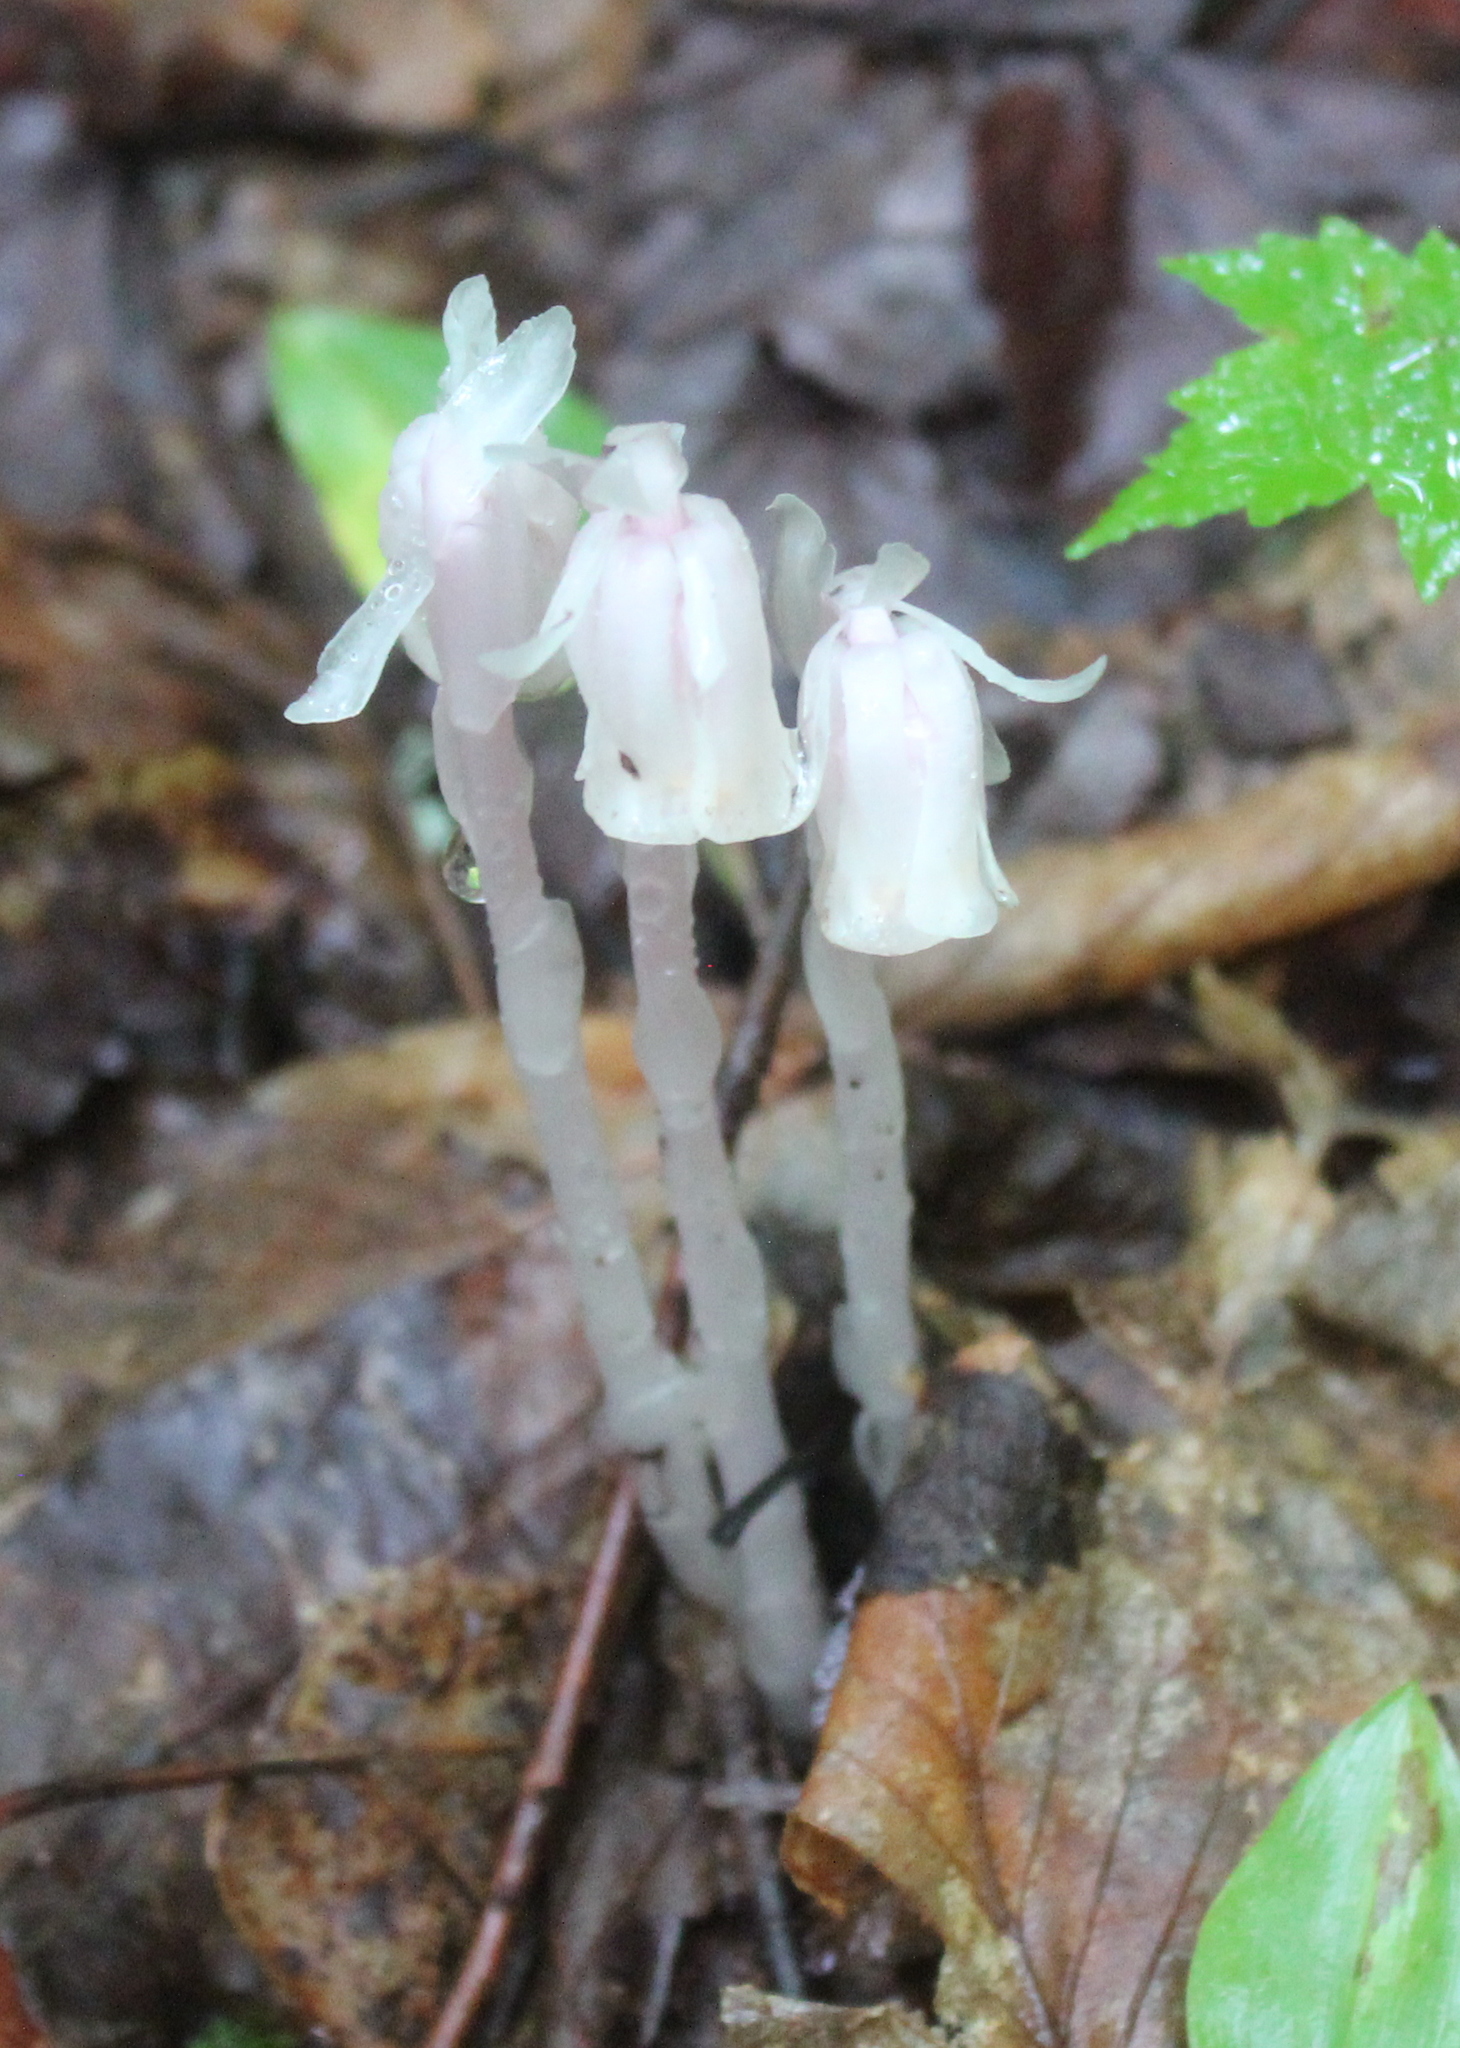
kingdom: Plantae
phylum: Tracheophyta
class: Magnoliopsida
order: Ericales
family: Ericaceae
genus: Monotropa
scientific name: Monotropa uniflora
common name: Convulsion root
